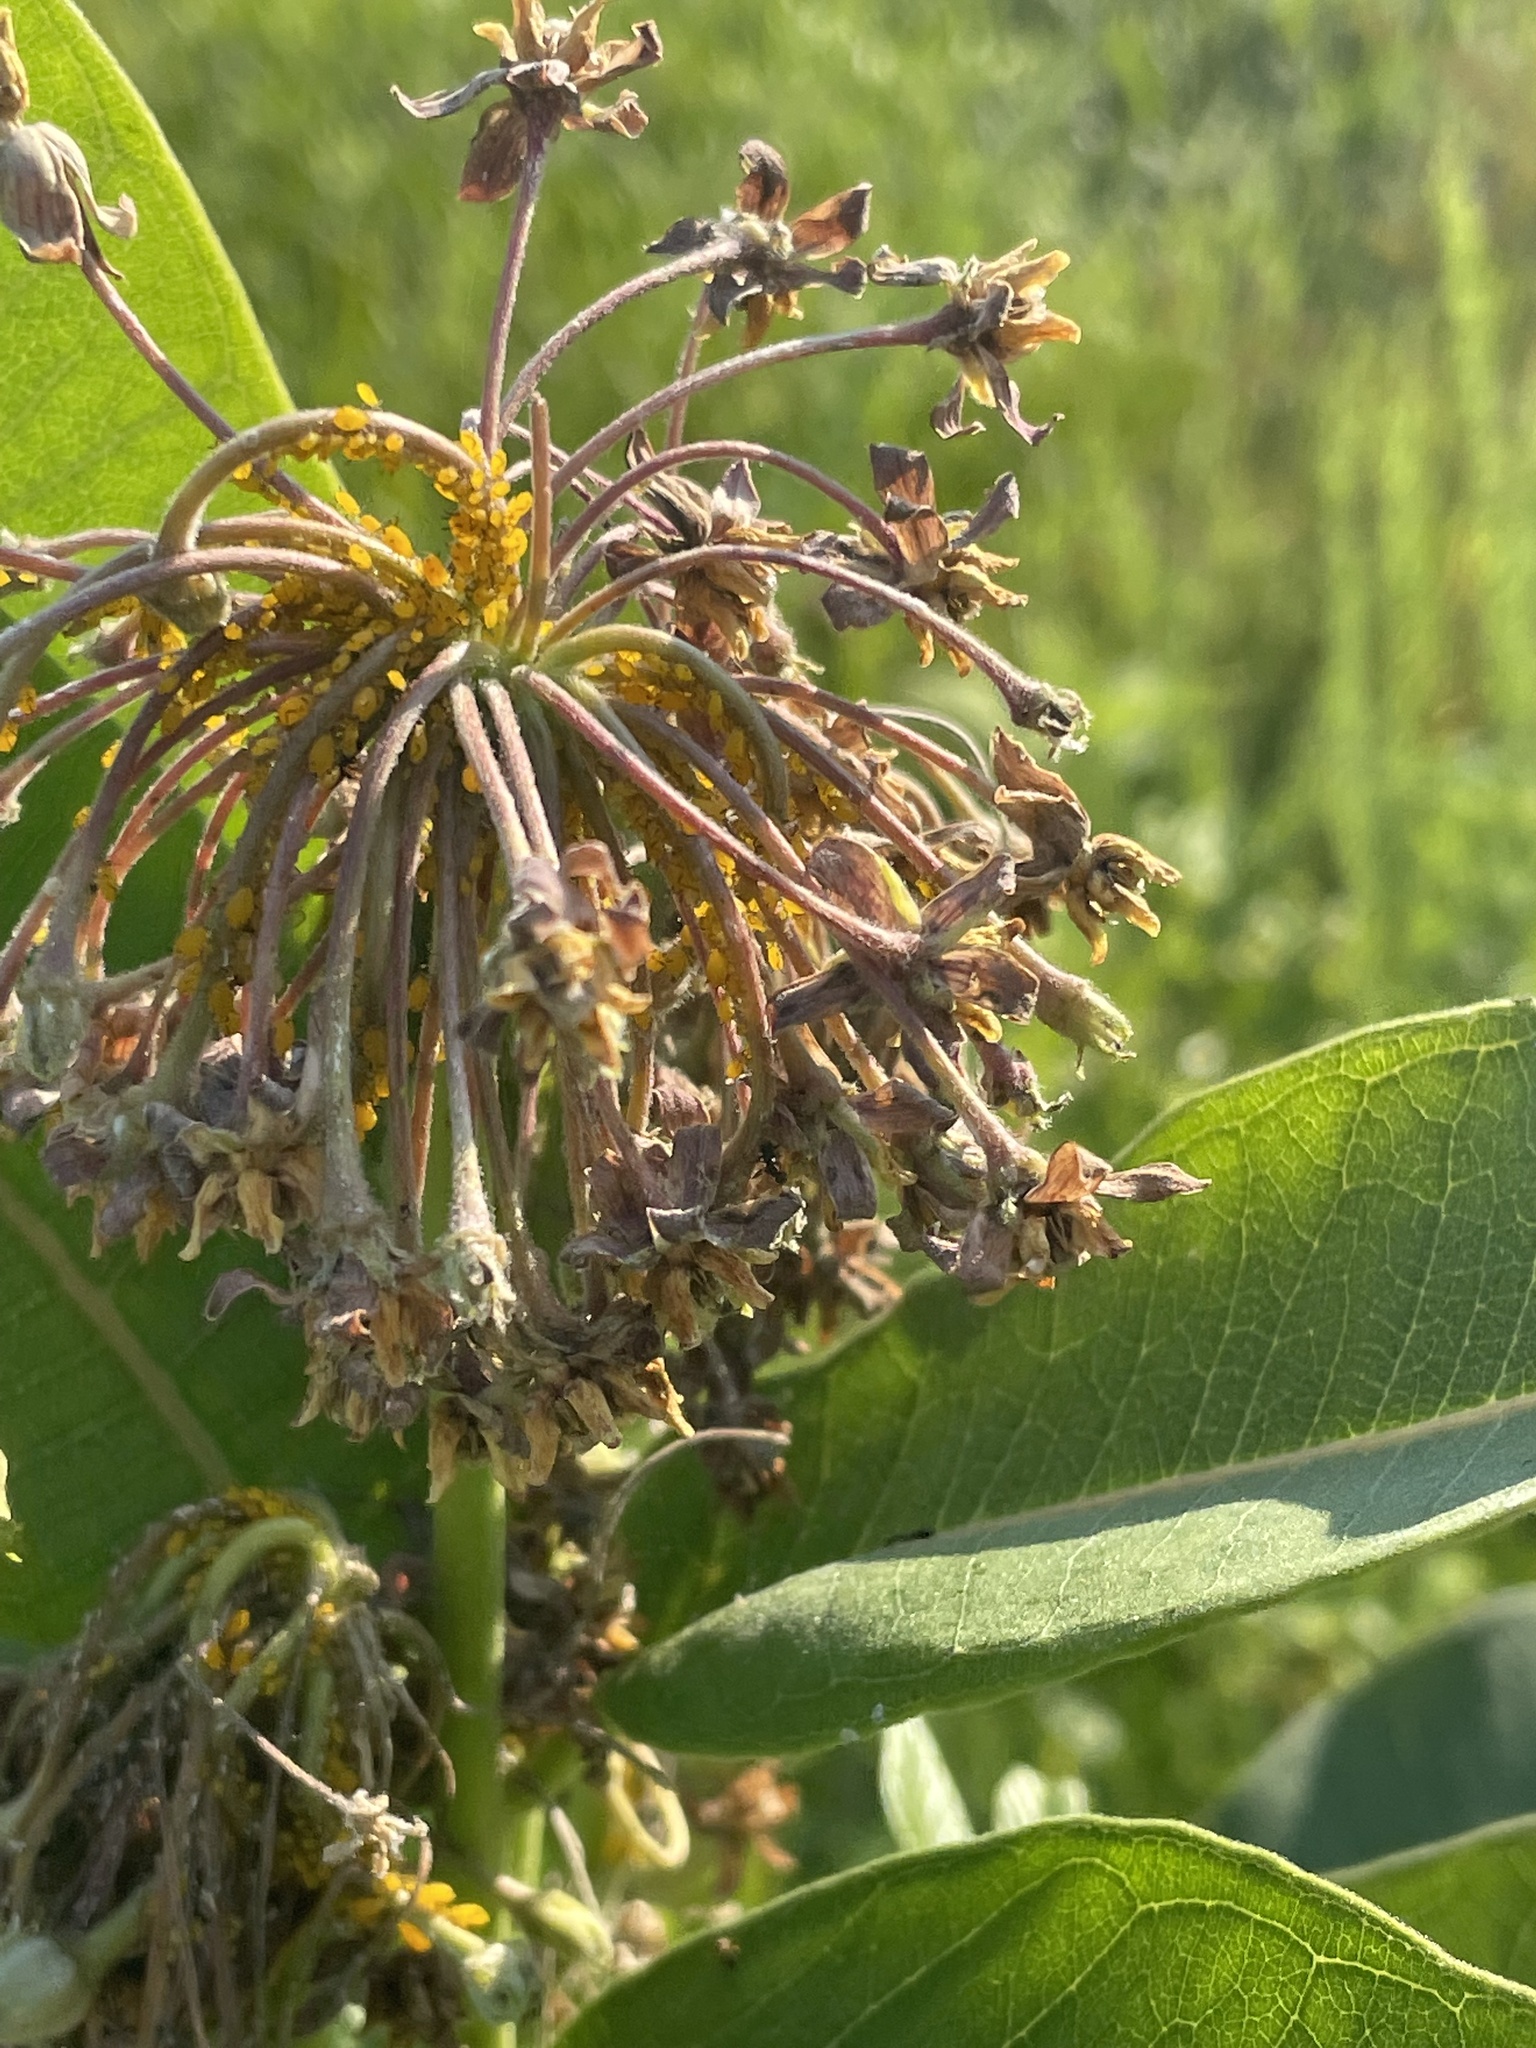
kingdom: Animalia
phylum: Arthropoda
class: Insecta
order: Hemiptera
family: Aphididae
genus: Aphis
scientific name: Aphis nerii
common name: Oleander aphid
